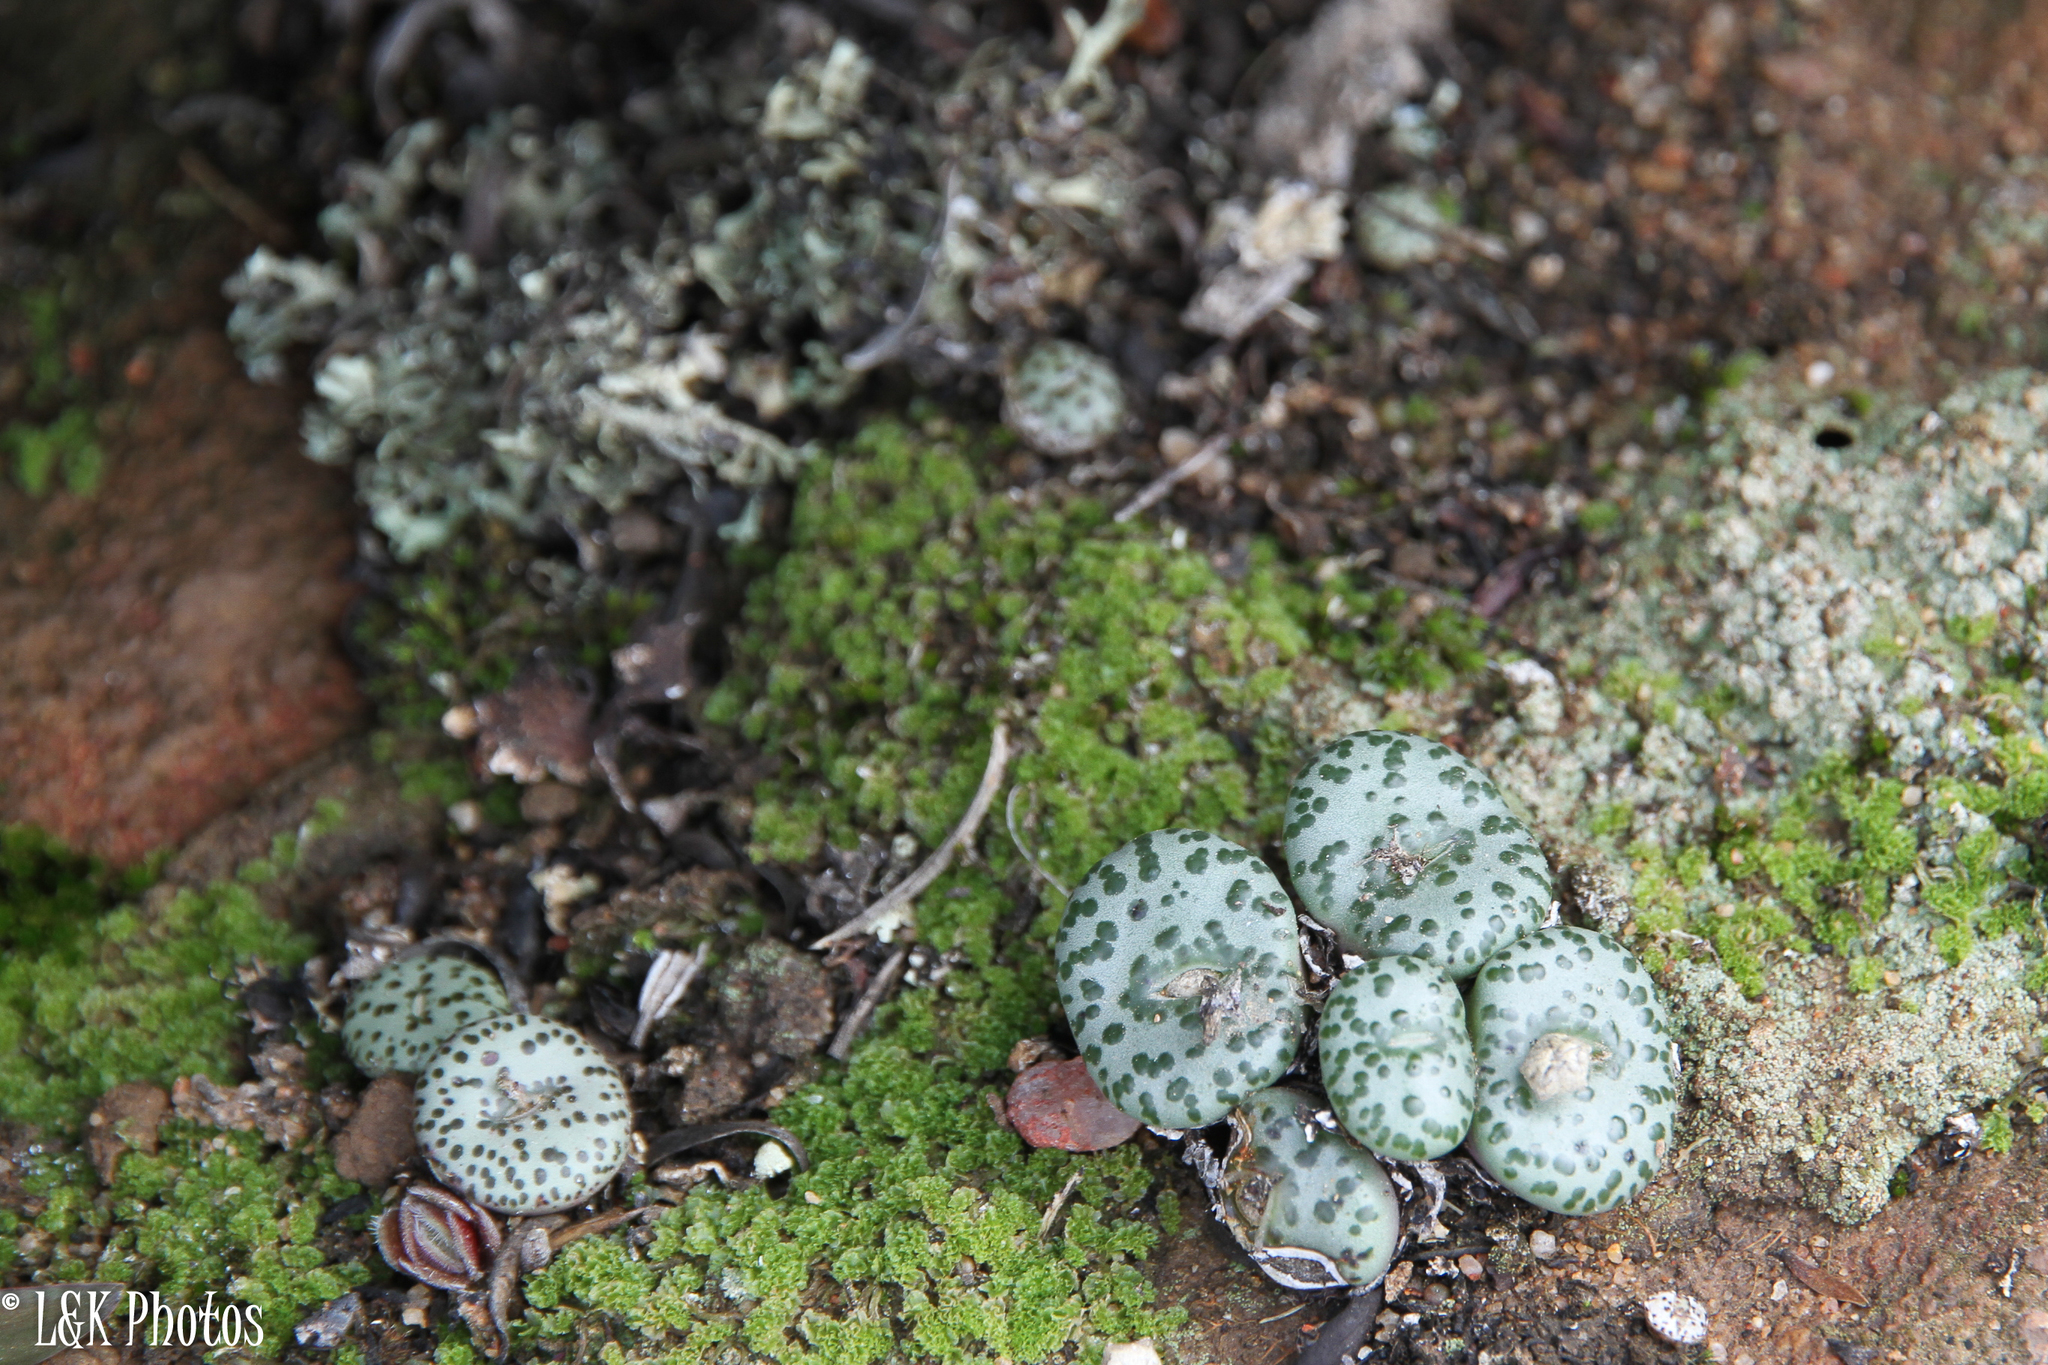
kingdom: Plantae
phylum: Tracheophyta
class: Magnoliopsida
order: Caryophyllales
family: Aizoaceae
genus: Conophytum
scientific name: Conophytum obcordellum
